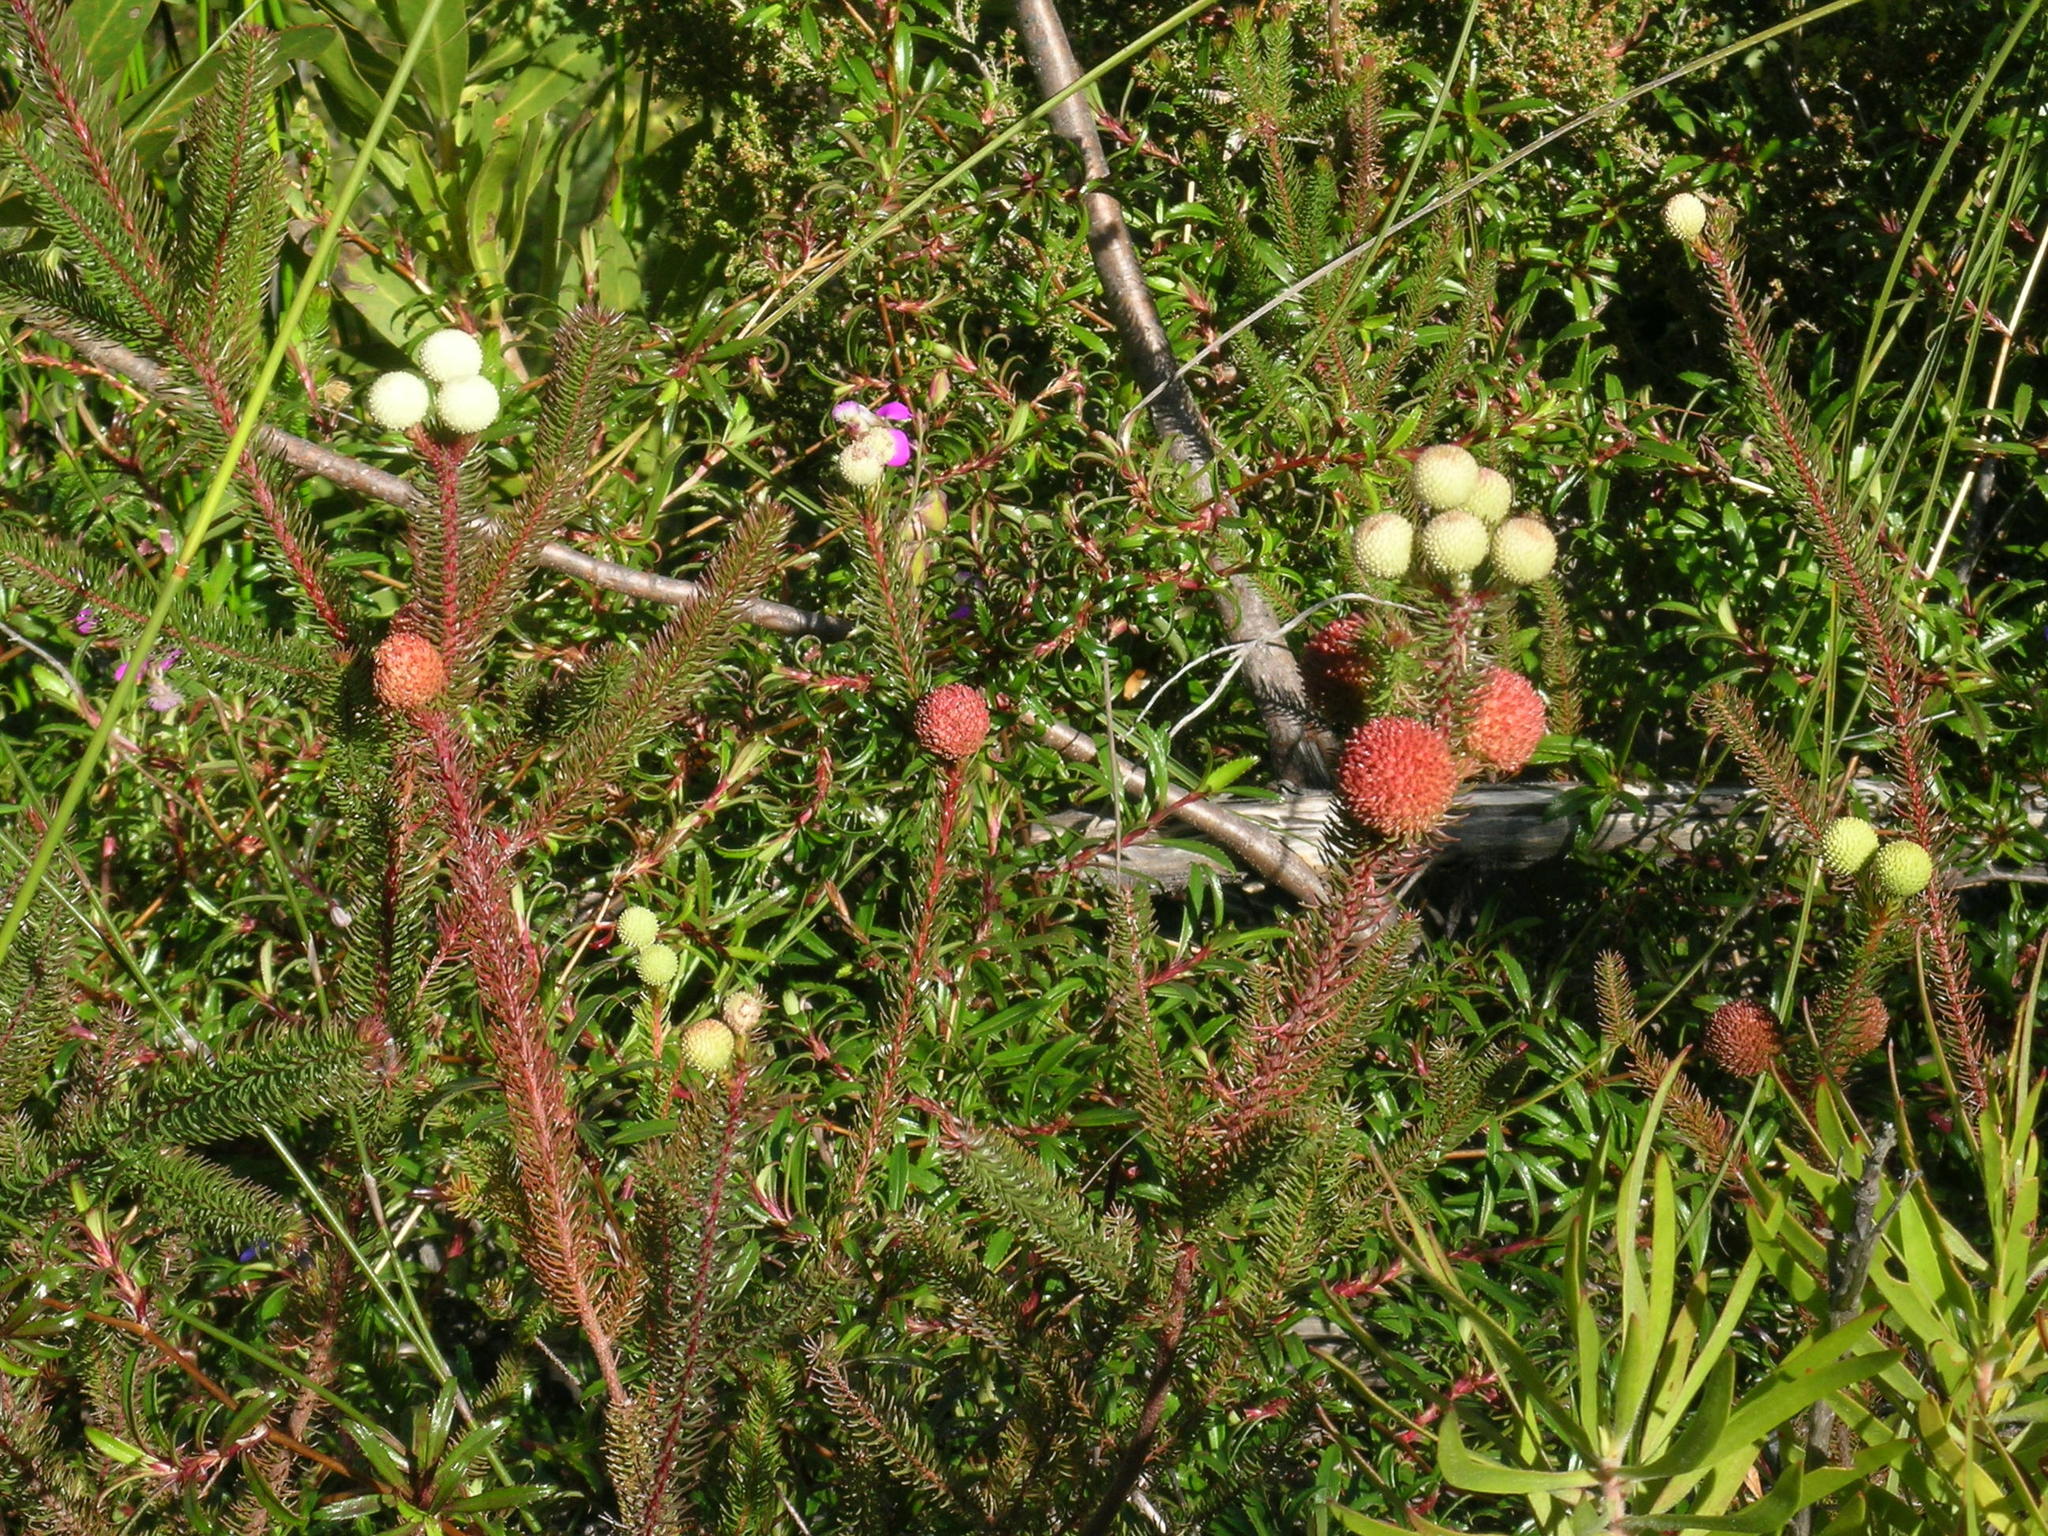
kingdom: Plantae
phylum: Tracheophyta
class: Magnoliopsida
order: Rosales
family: Rosaceae
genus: Cliffortia
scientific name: Cliffortia ferruginea
